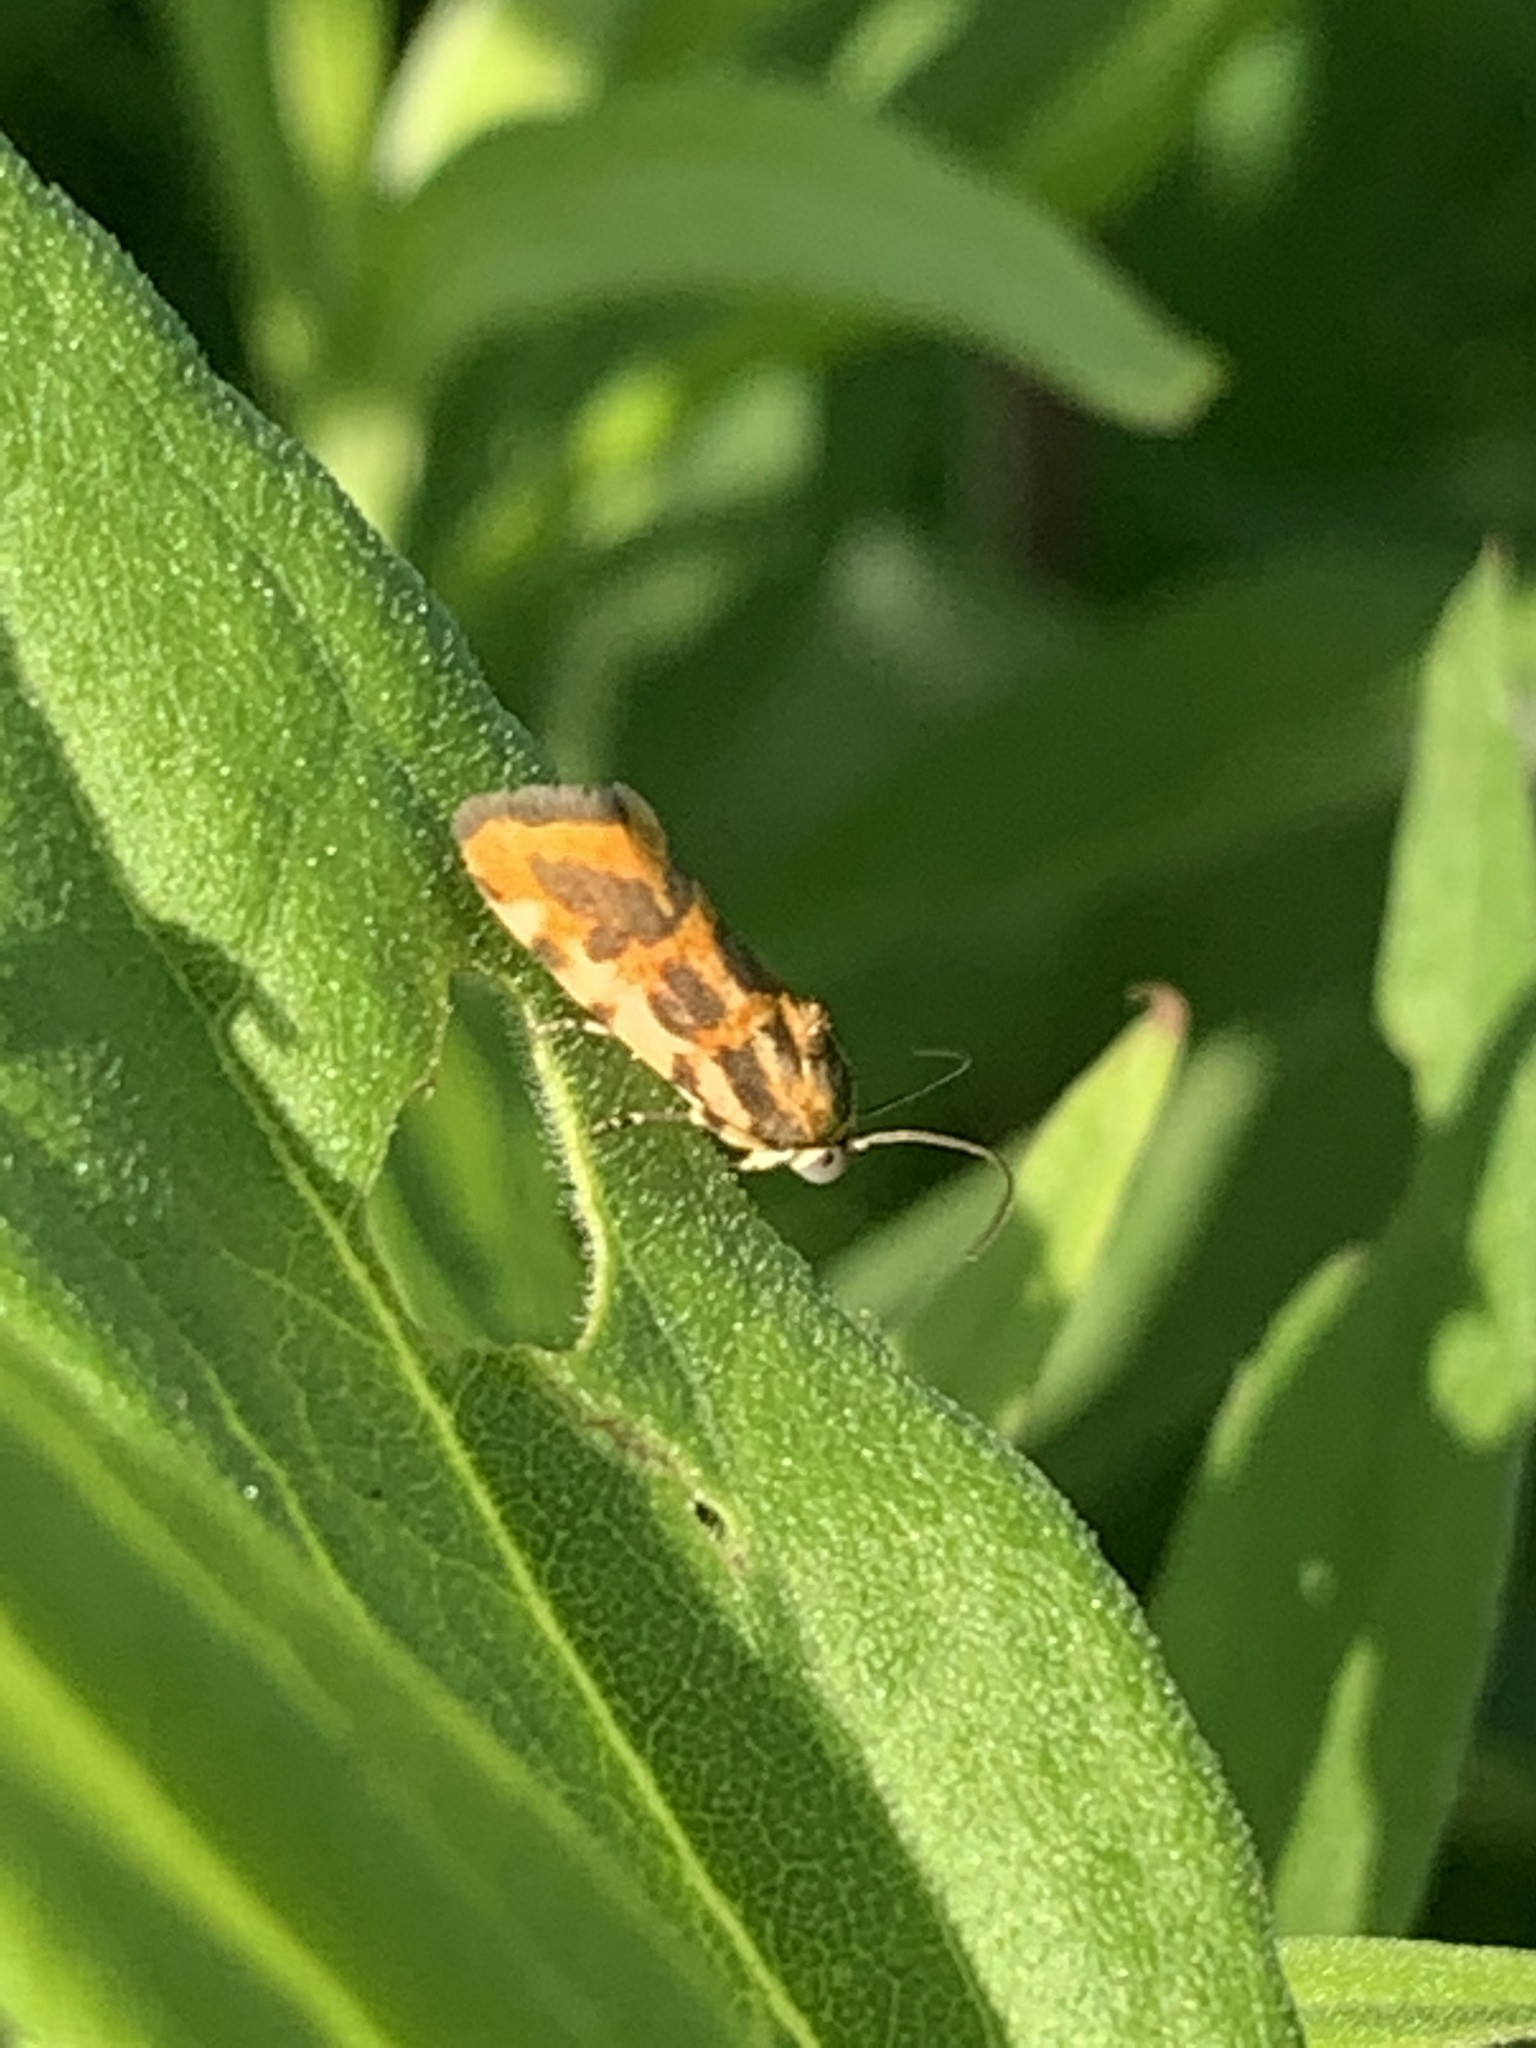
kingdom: Animalia
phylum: Arthropoda
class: Insecta
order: Lepidoptera
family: Noctuidae
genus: Acontia
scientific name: Acontia leo
